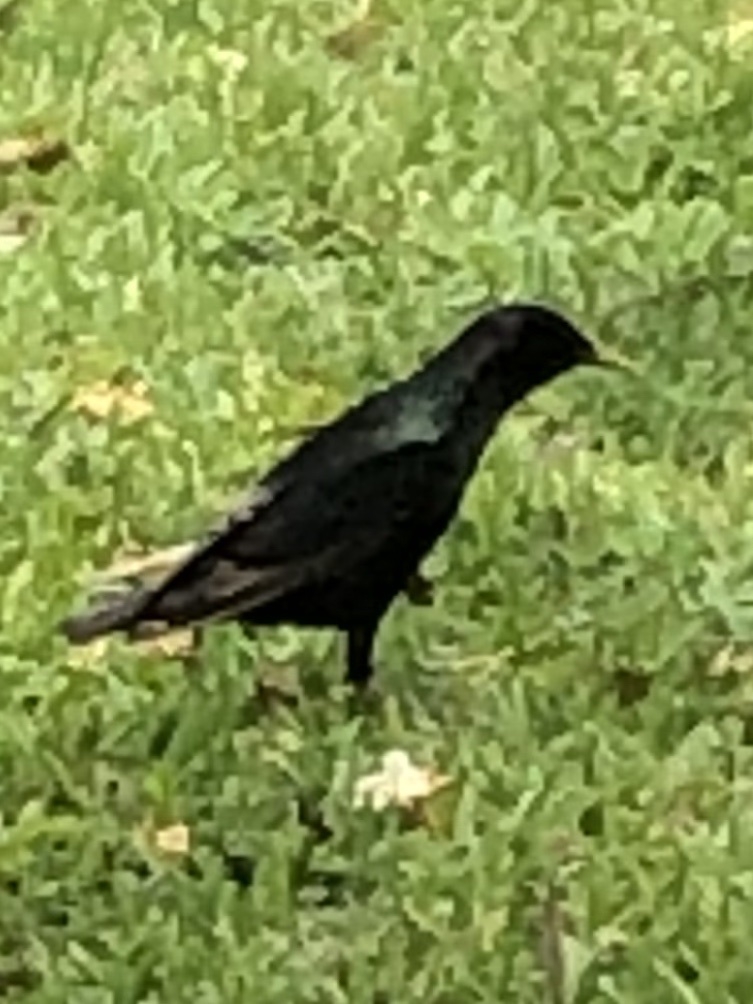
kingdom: Animalia
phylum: Chordata
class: Aves
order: Passeriformes
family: Sturnidae
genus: Sturnus
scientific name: Sturnus vulgaris
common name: Common starling
